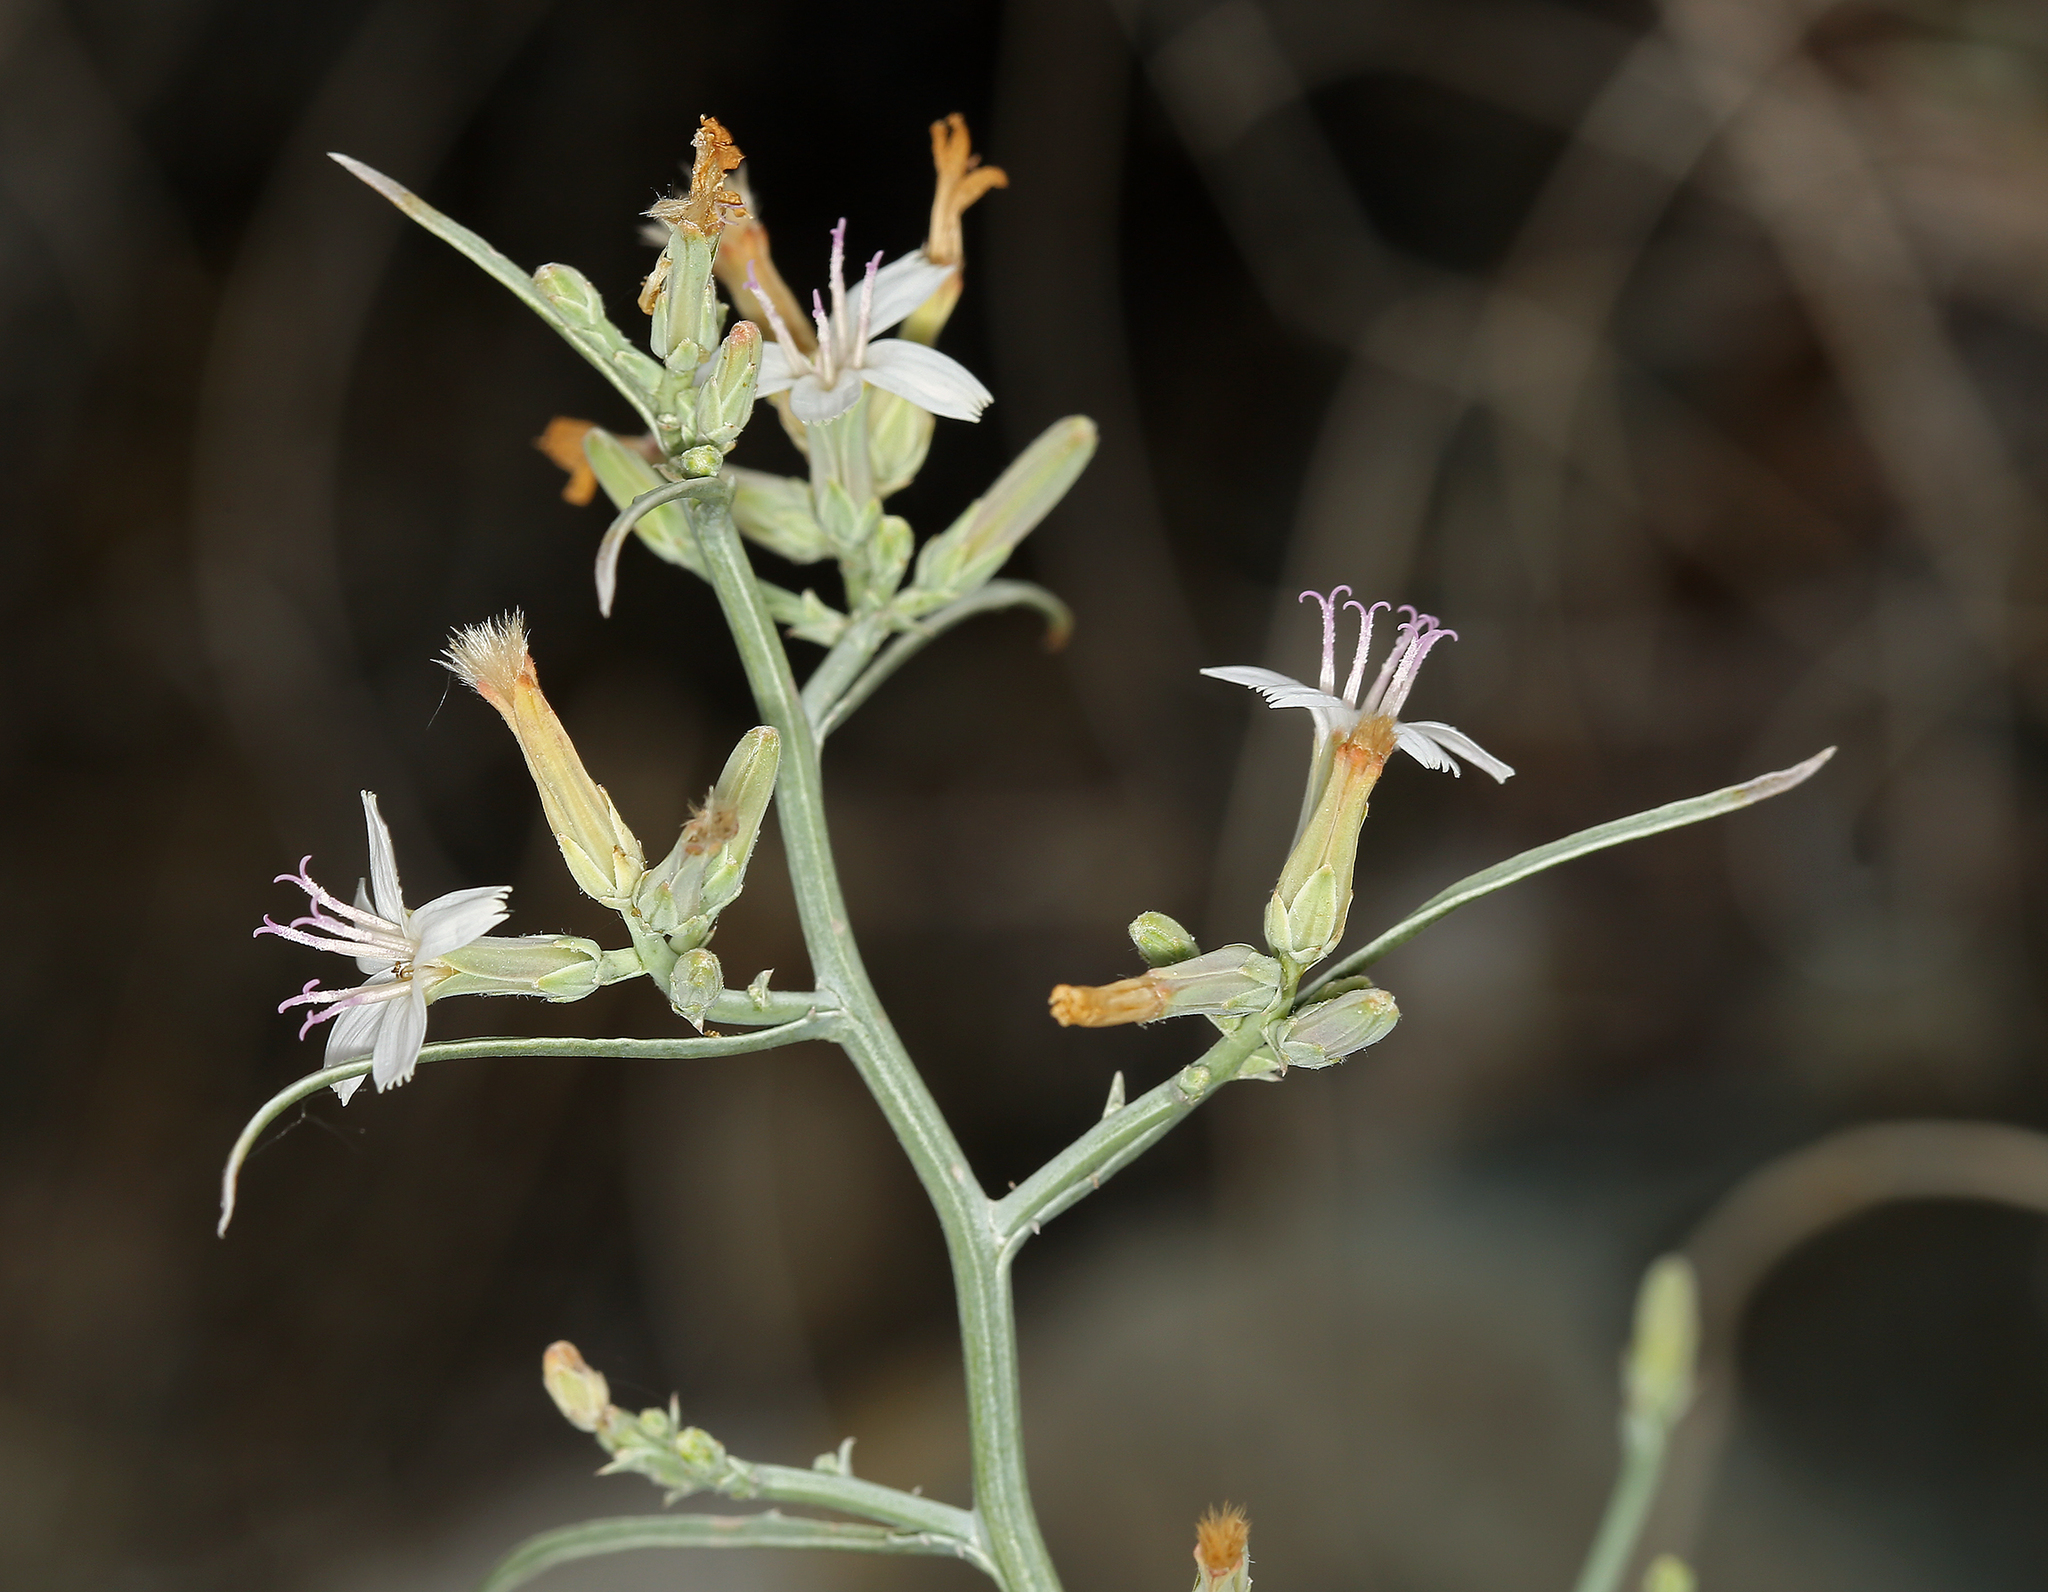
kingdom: Plantae
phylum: Tracheophyta
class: Magnoliopsida
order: Asterales
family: Asteraceae
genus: Stephanomeria
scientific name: Stephanomeria pauciflora
